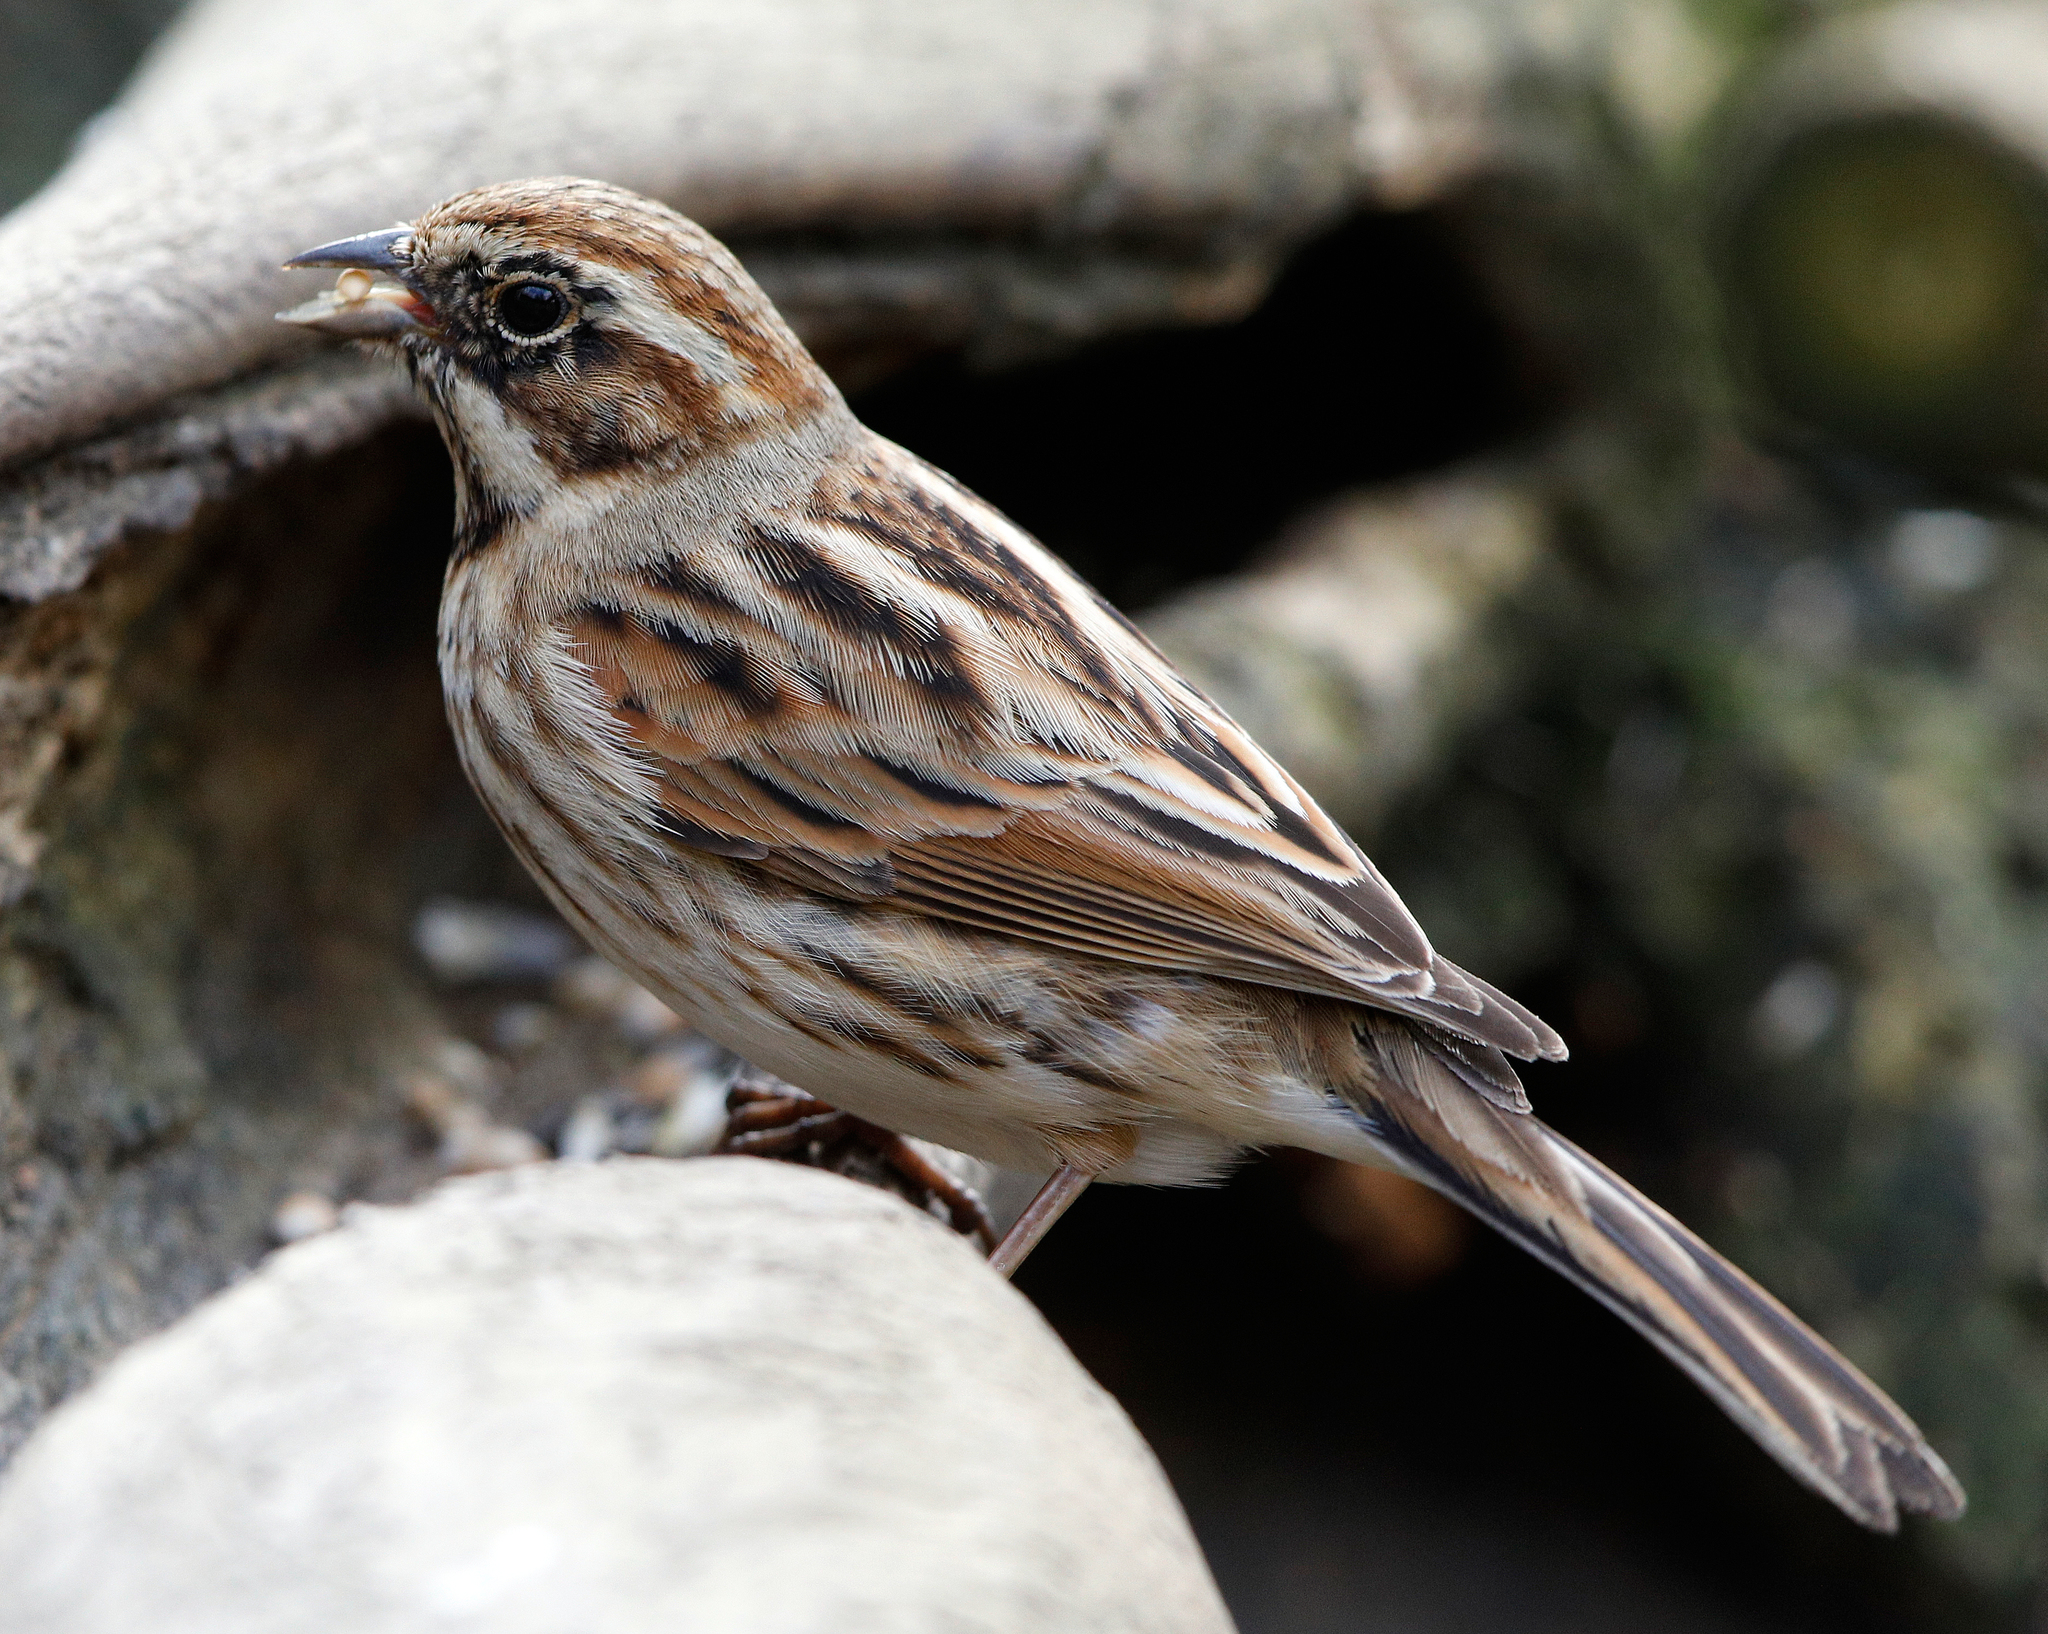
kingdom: Animalia
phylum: Chordata
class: Aves
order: Passeriformes
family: Emberizidae
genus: Emberiza
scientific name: Emberiza schoeniclus
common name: Reed bunting
